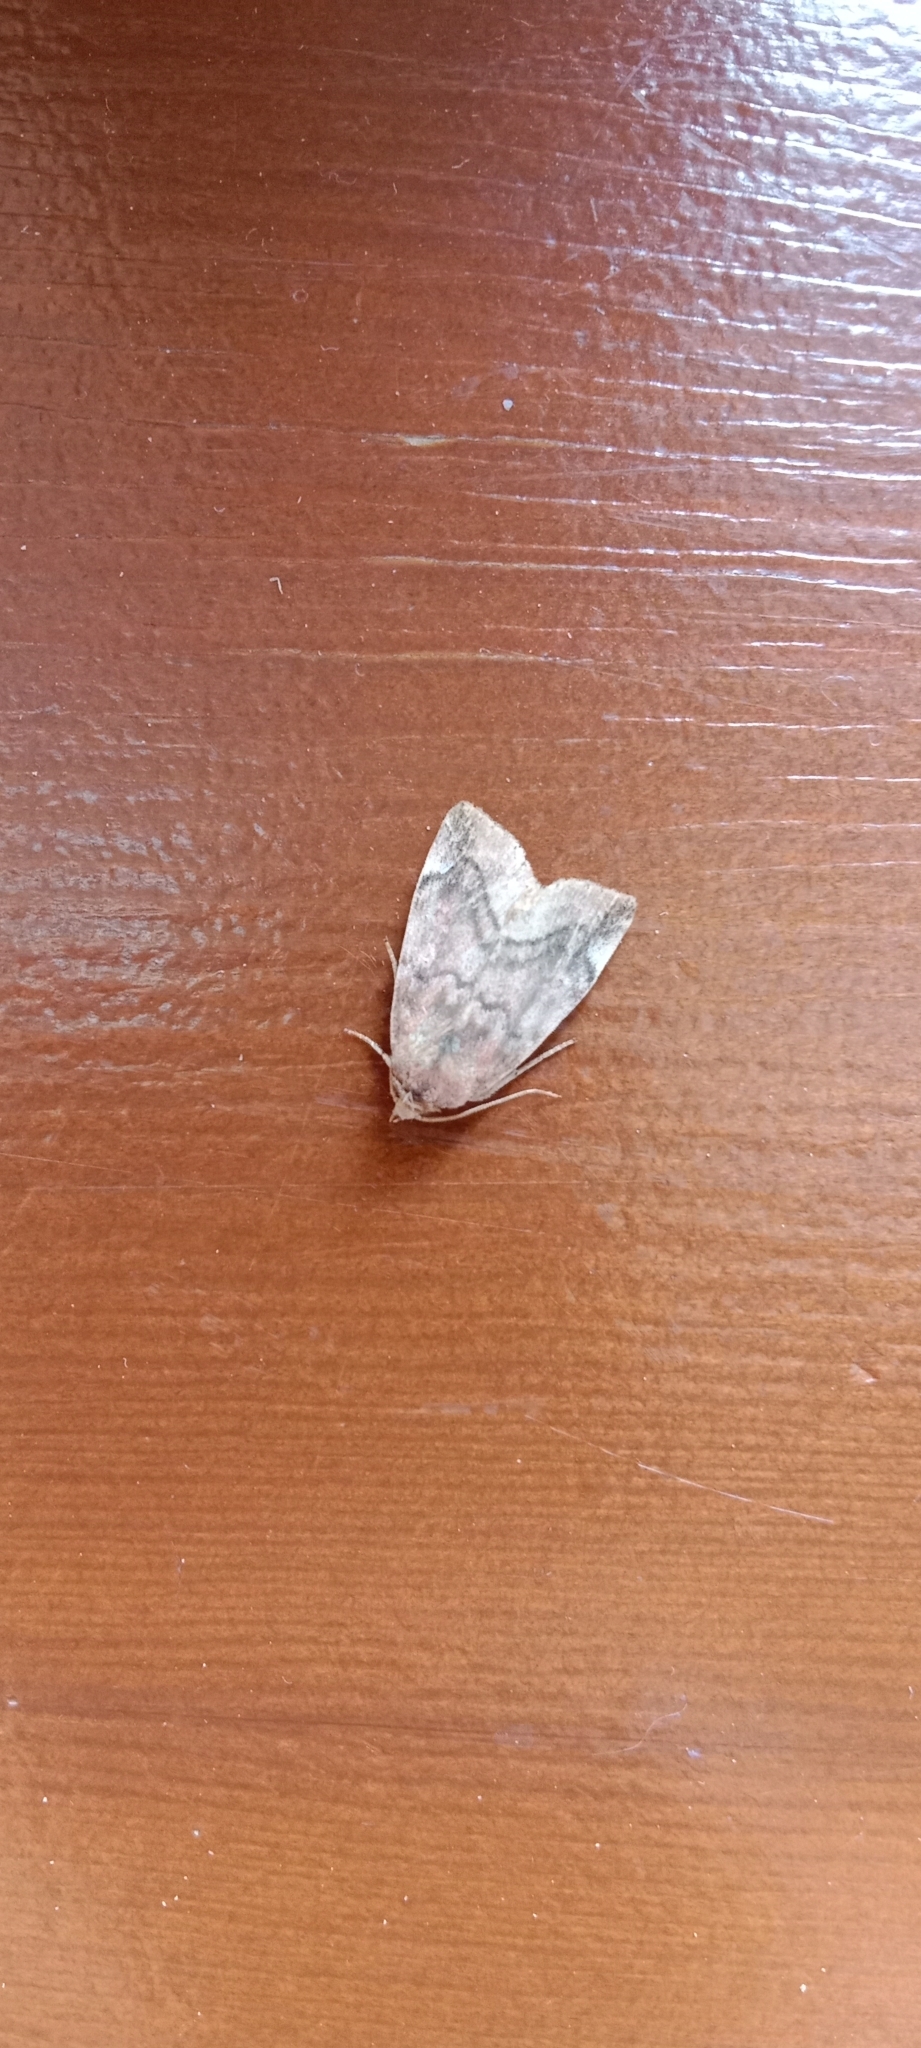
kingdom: Animalia
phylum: Arthropoda
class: Insecta
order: Lepidoptera
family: Noctuidae
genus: Cosmia
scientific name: Cosmia pyralina
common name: Lunar-spotted pinion
